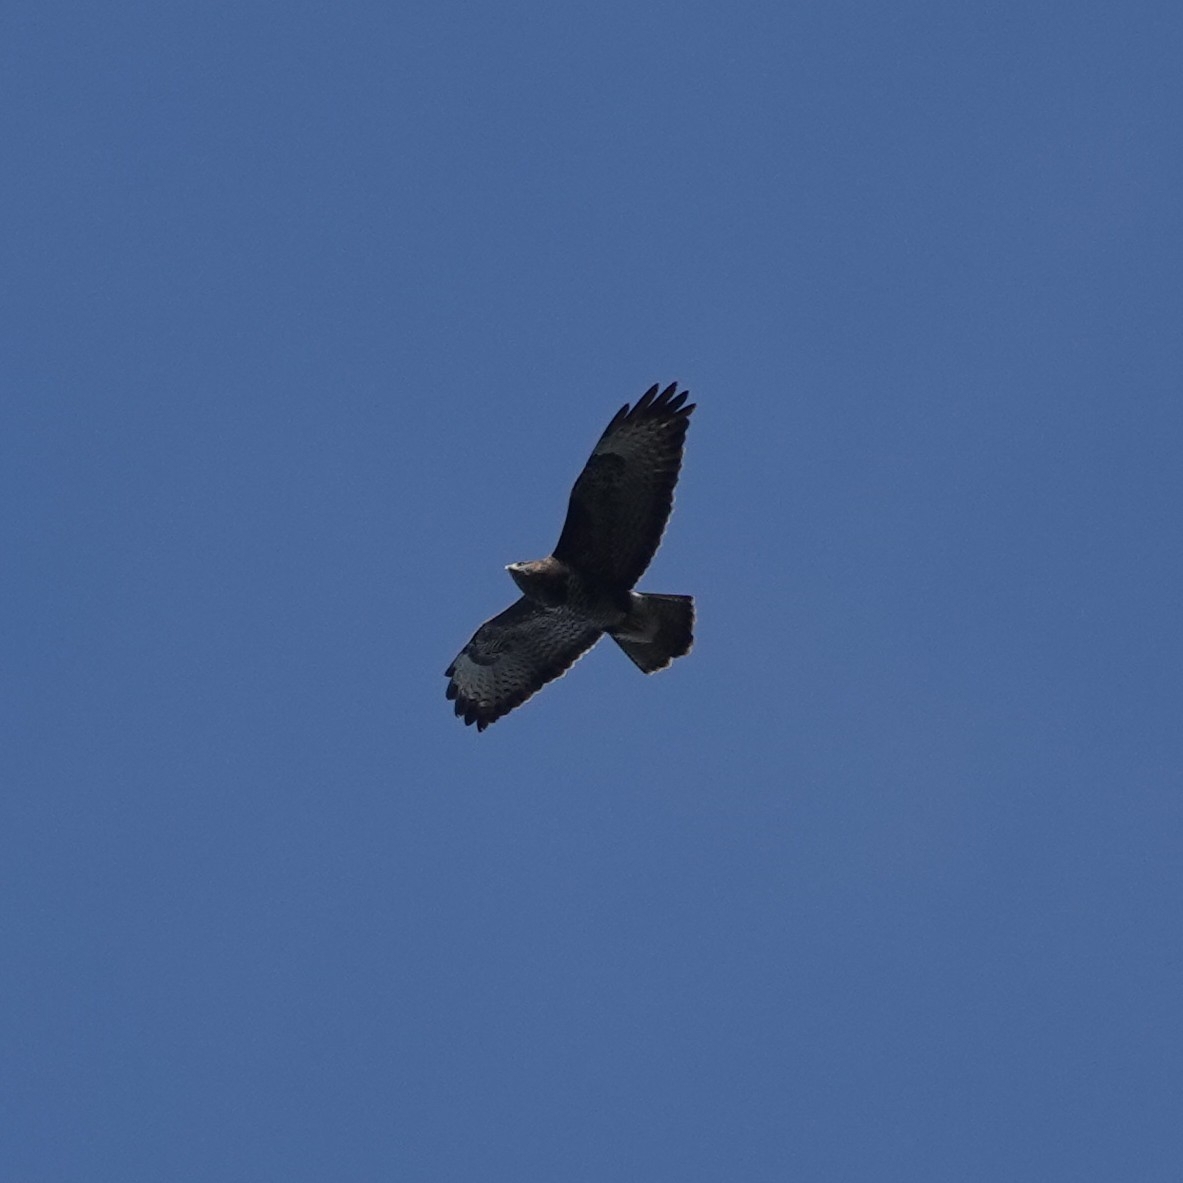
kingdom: Animalia
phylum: Chordata
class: Aves
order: Accipitriformes
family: Accipitridae
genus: Buteo
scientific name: Buteo buteo
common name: Common buzzard
